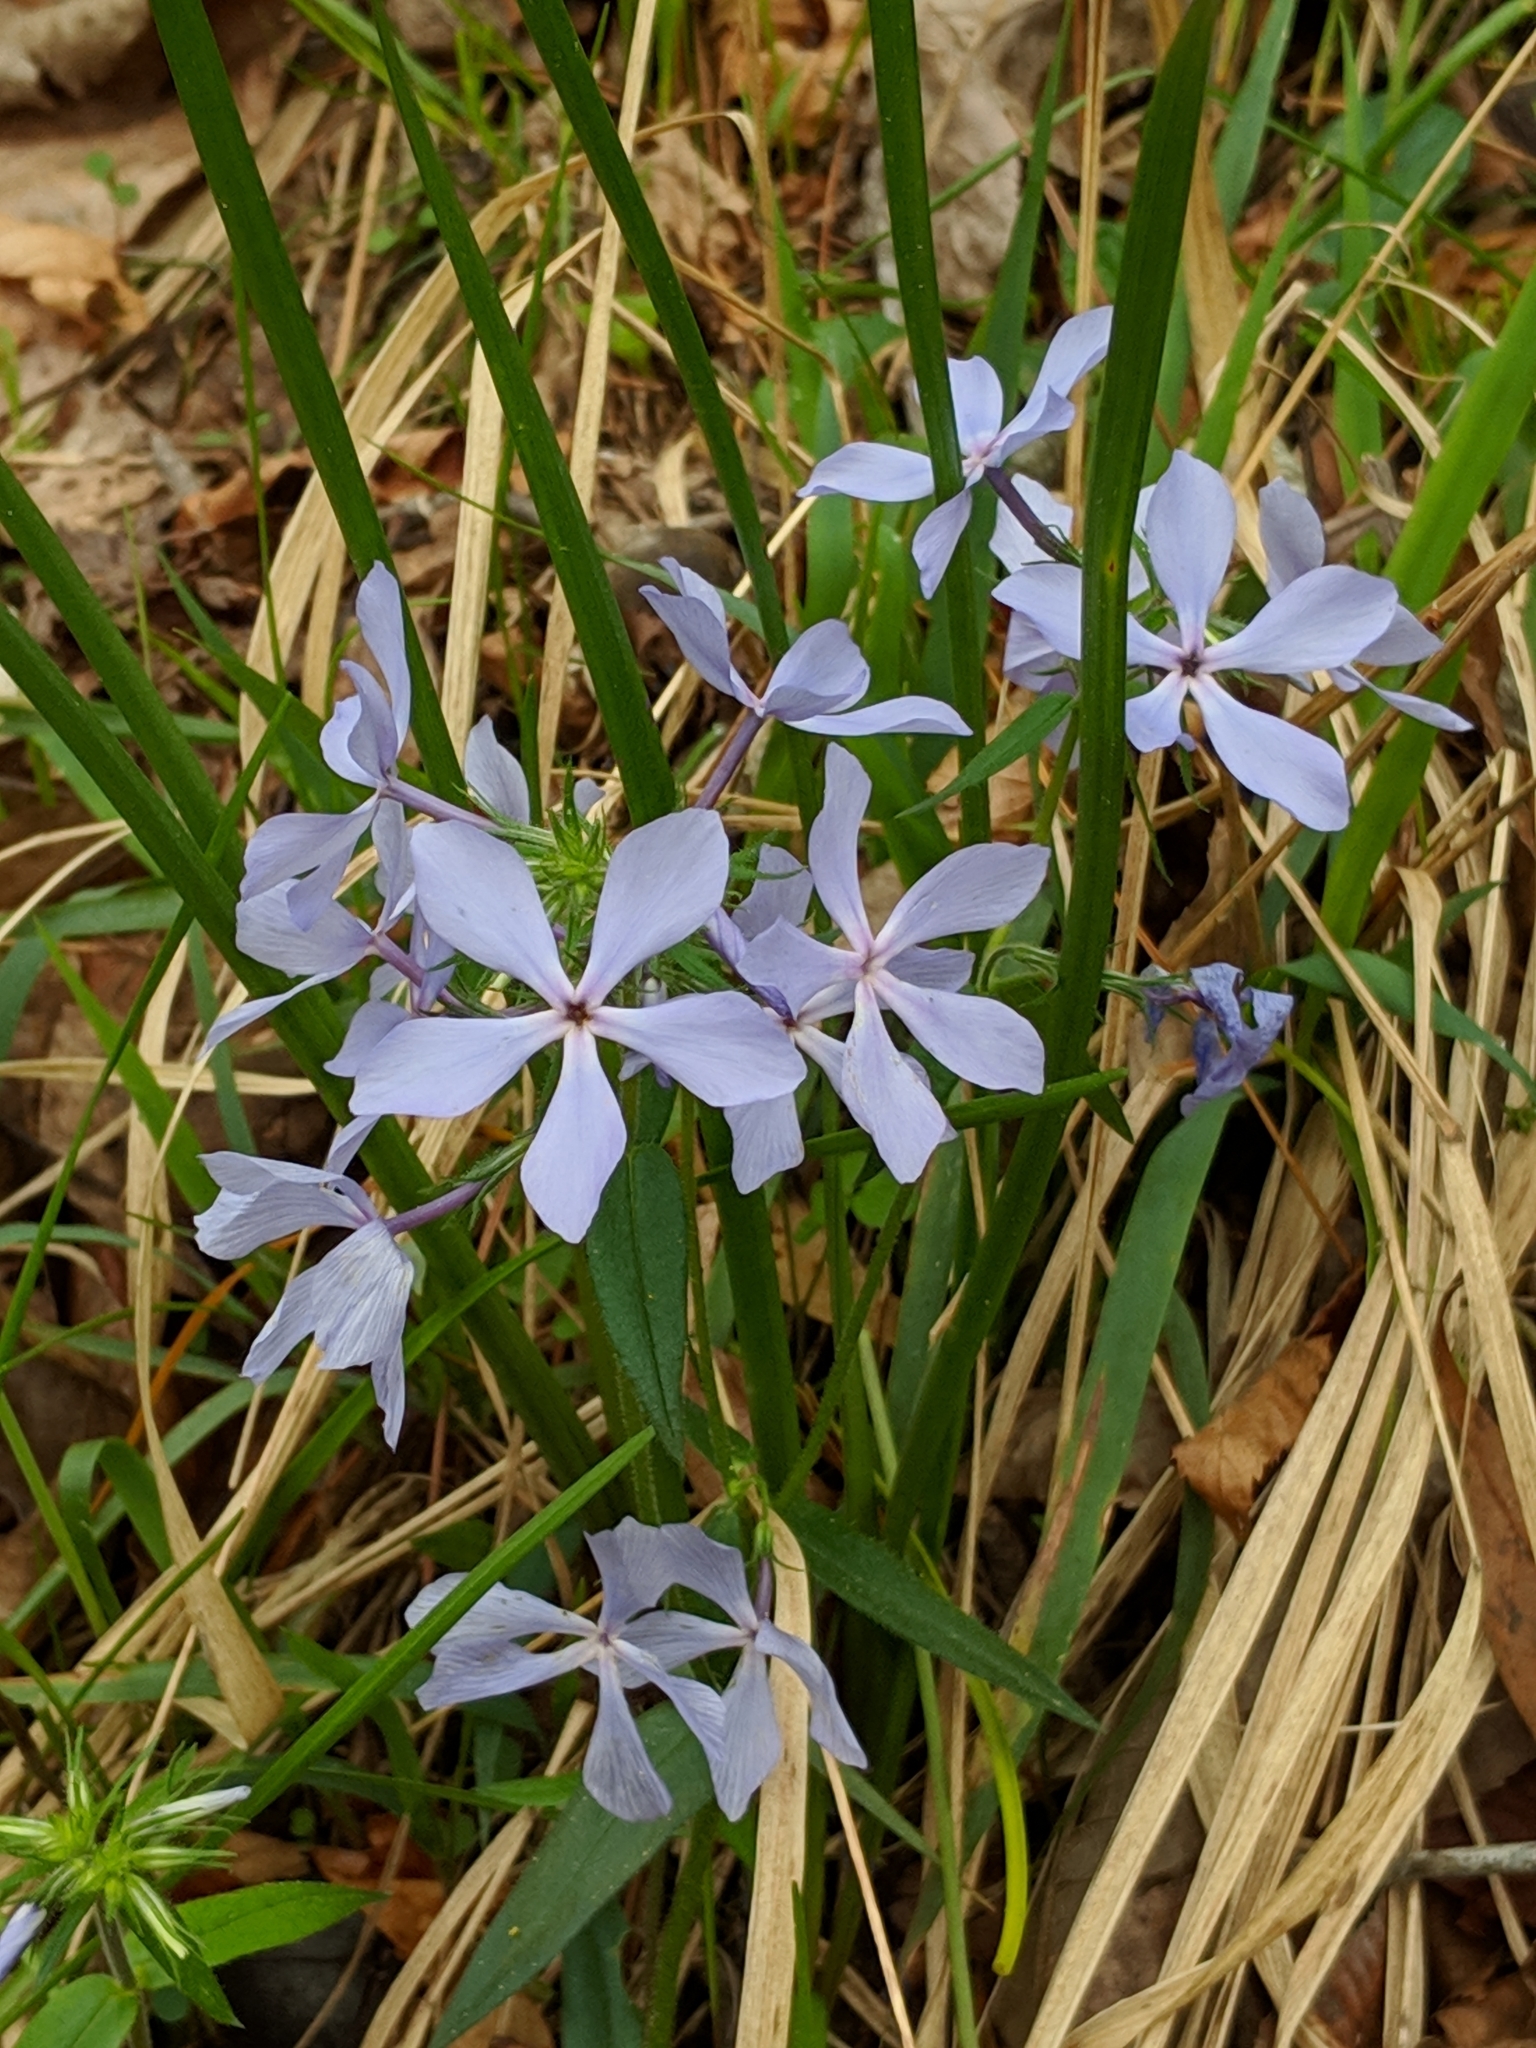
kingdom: Plantae
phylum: Tracheophyta
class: Magnoliopsida
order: Ericales
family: Polemoniaceae
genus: Phlox
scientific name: Phlox divaricata
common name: Blue phlox
